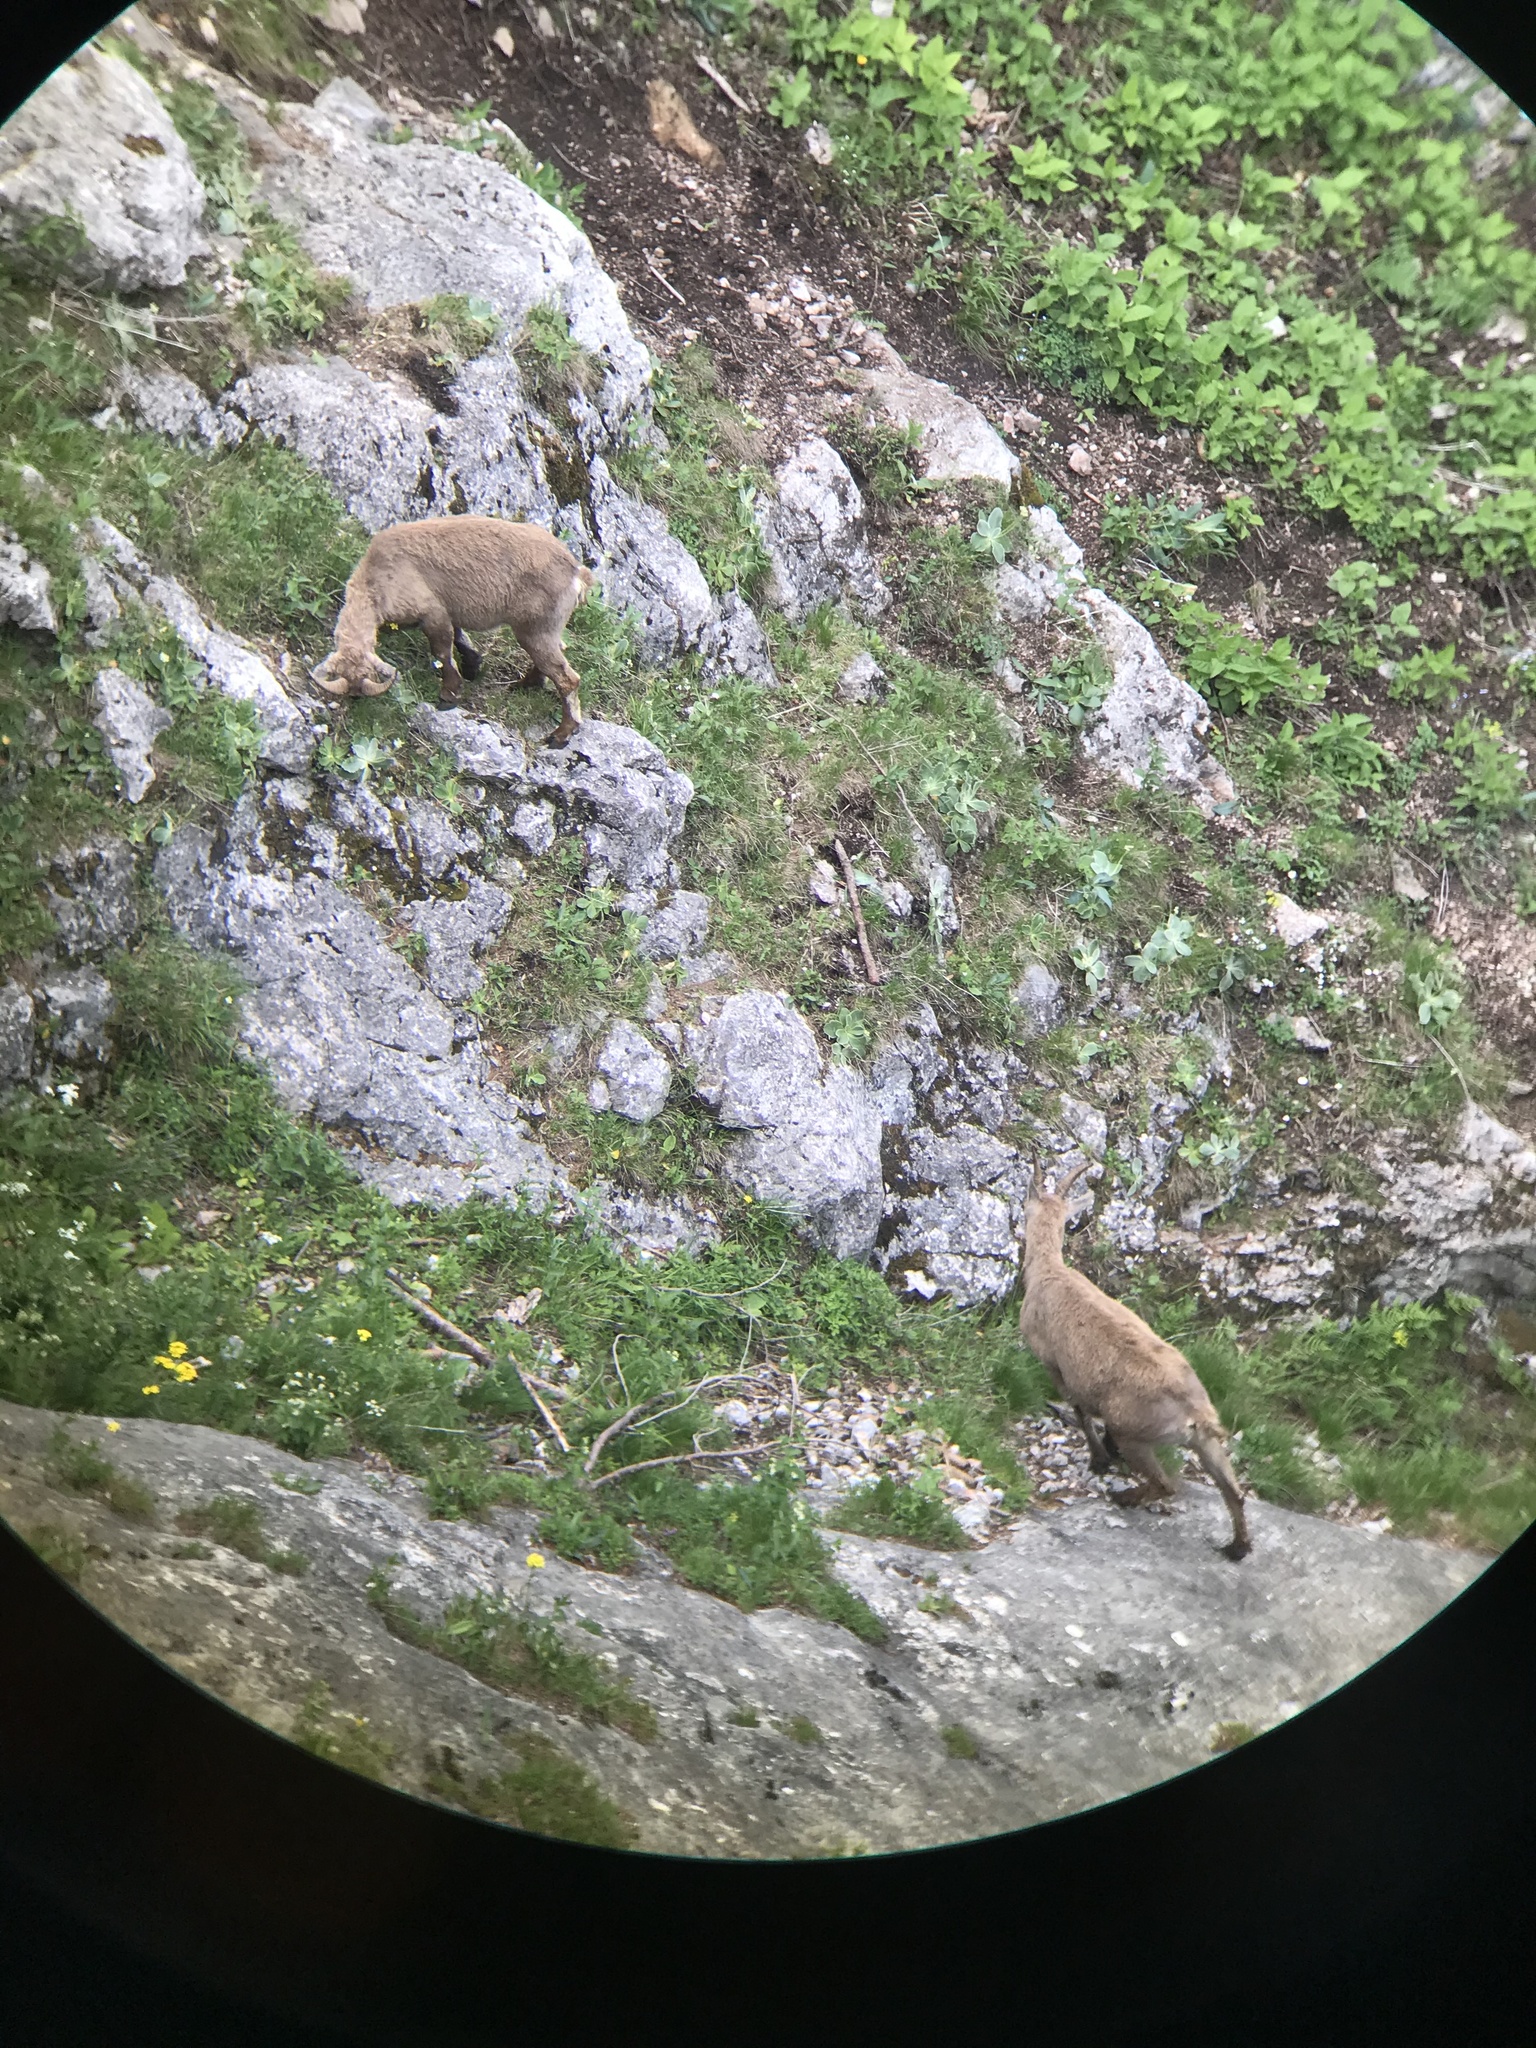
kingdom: Animalia
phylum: Chordata
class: Mammalia
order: Artiodactyla
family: Bovidae
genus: Capra
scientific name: Capra ibex
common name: Alpine ibex
